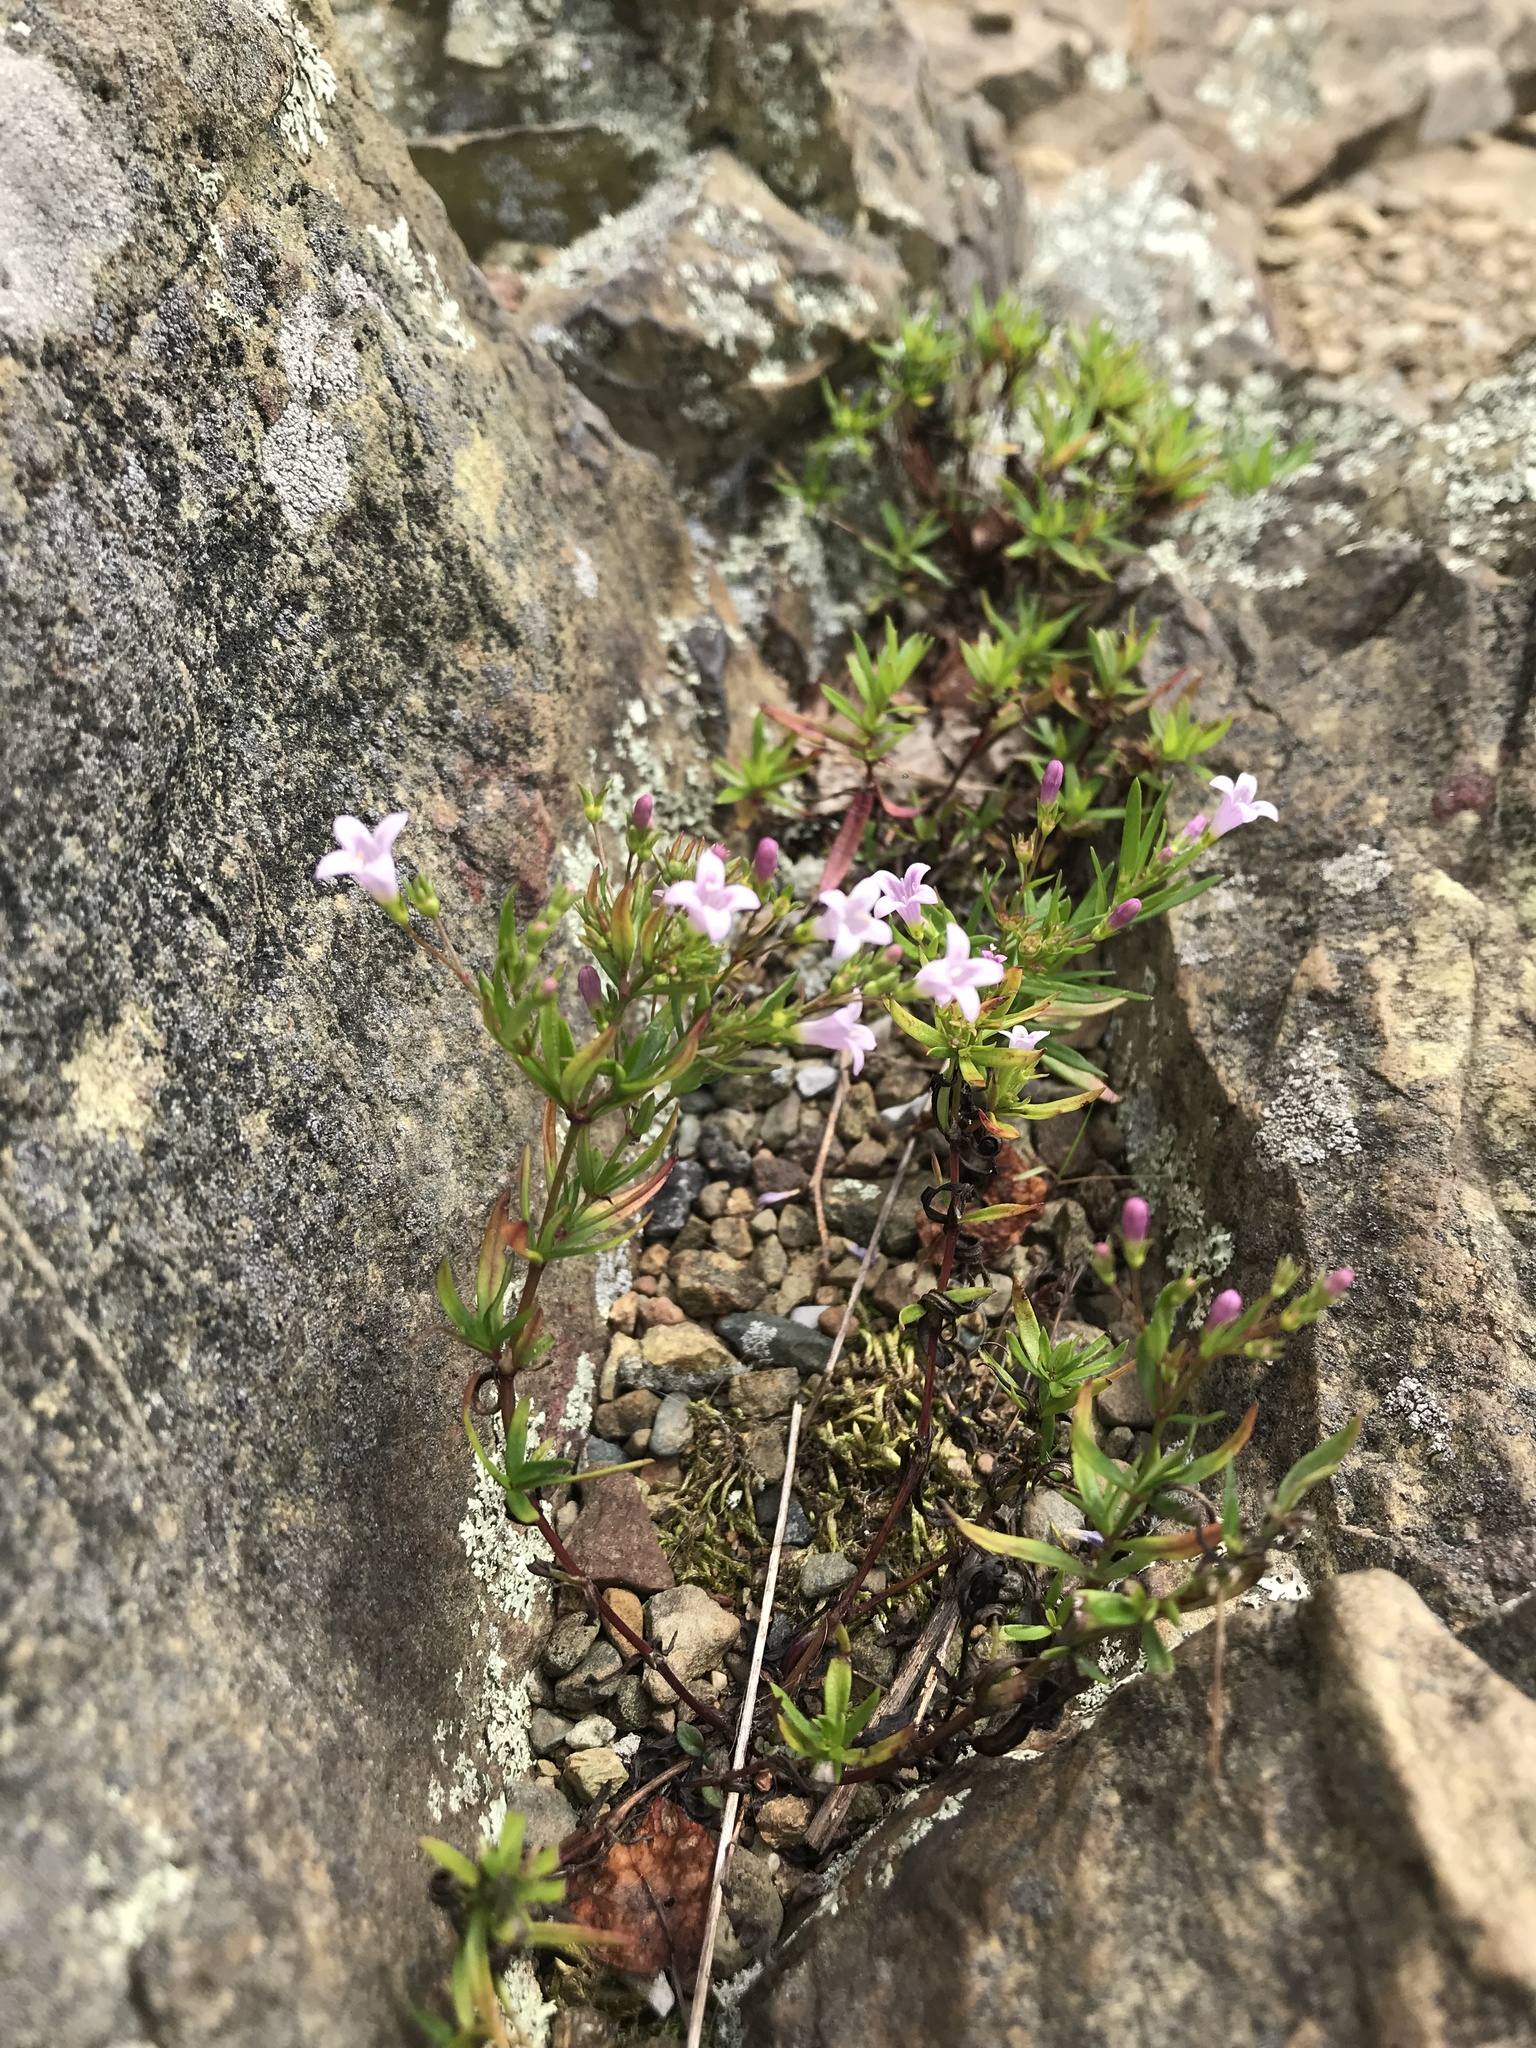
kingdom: Plantae
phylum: Tracheophyta
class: Magnoliopsida
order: Gentianales
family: Rubiaceae
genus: Houstonia
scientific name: Houstonia longifolia
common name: Long-leaved bluets
